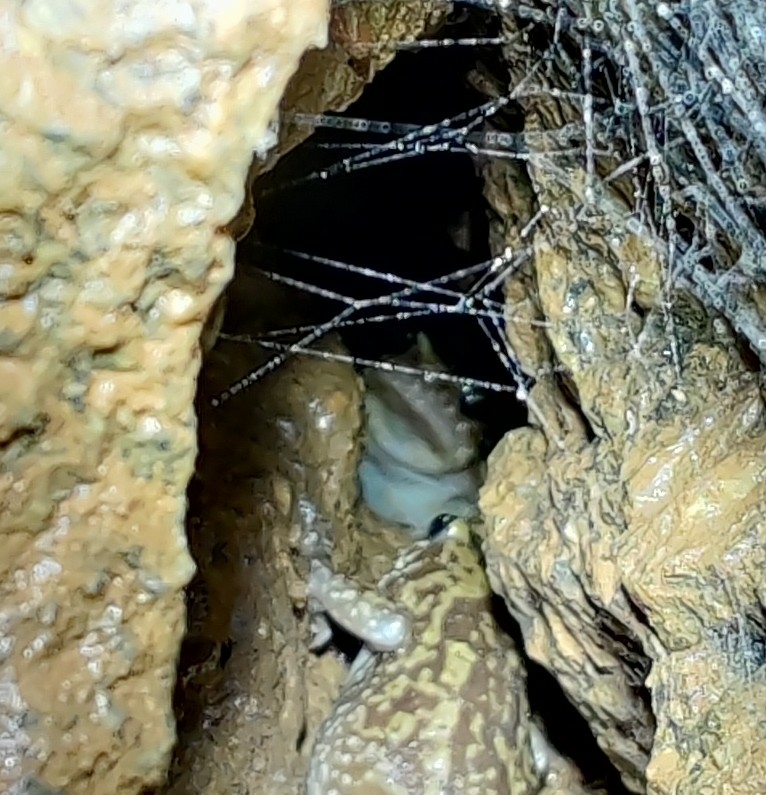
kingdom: Animalia
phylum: Chordata
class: Amphibia
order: Anura
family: Microhylidae
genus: Uperodon
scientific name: Uperodon variegatus
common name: Eluru dot frog
